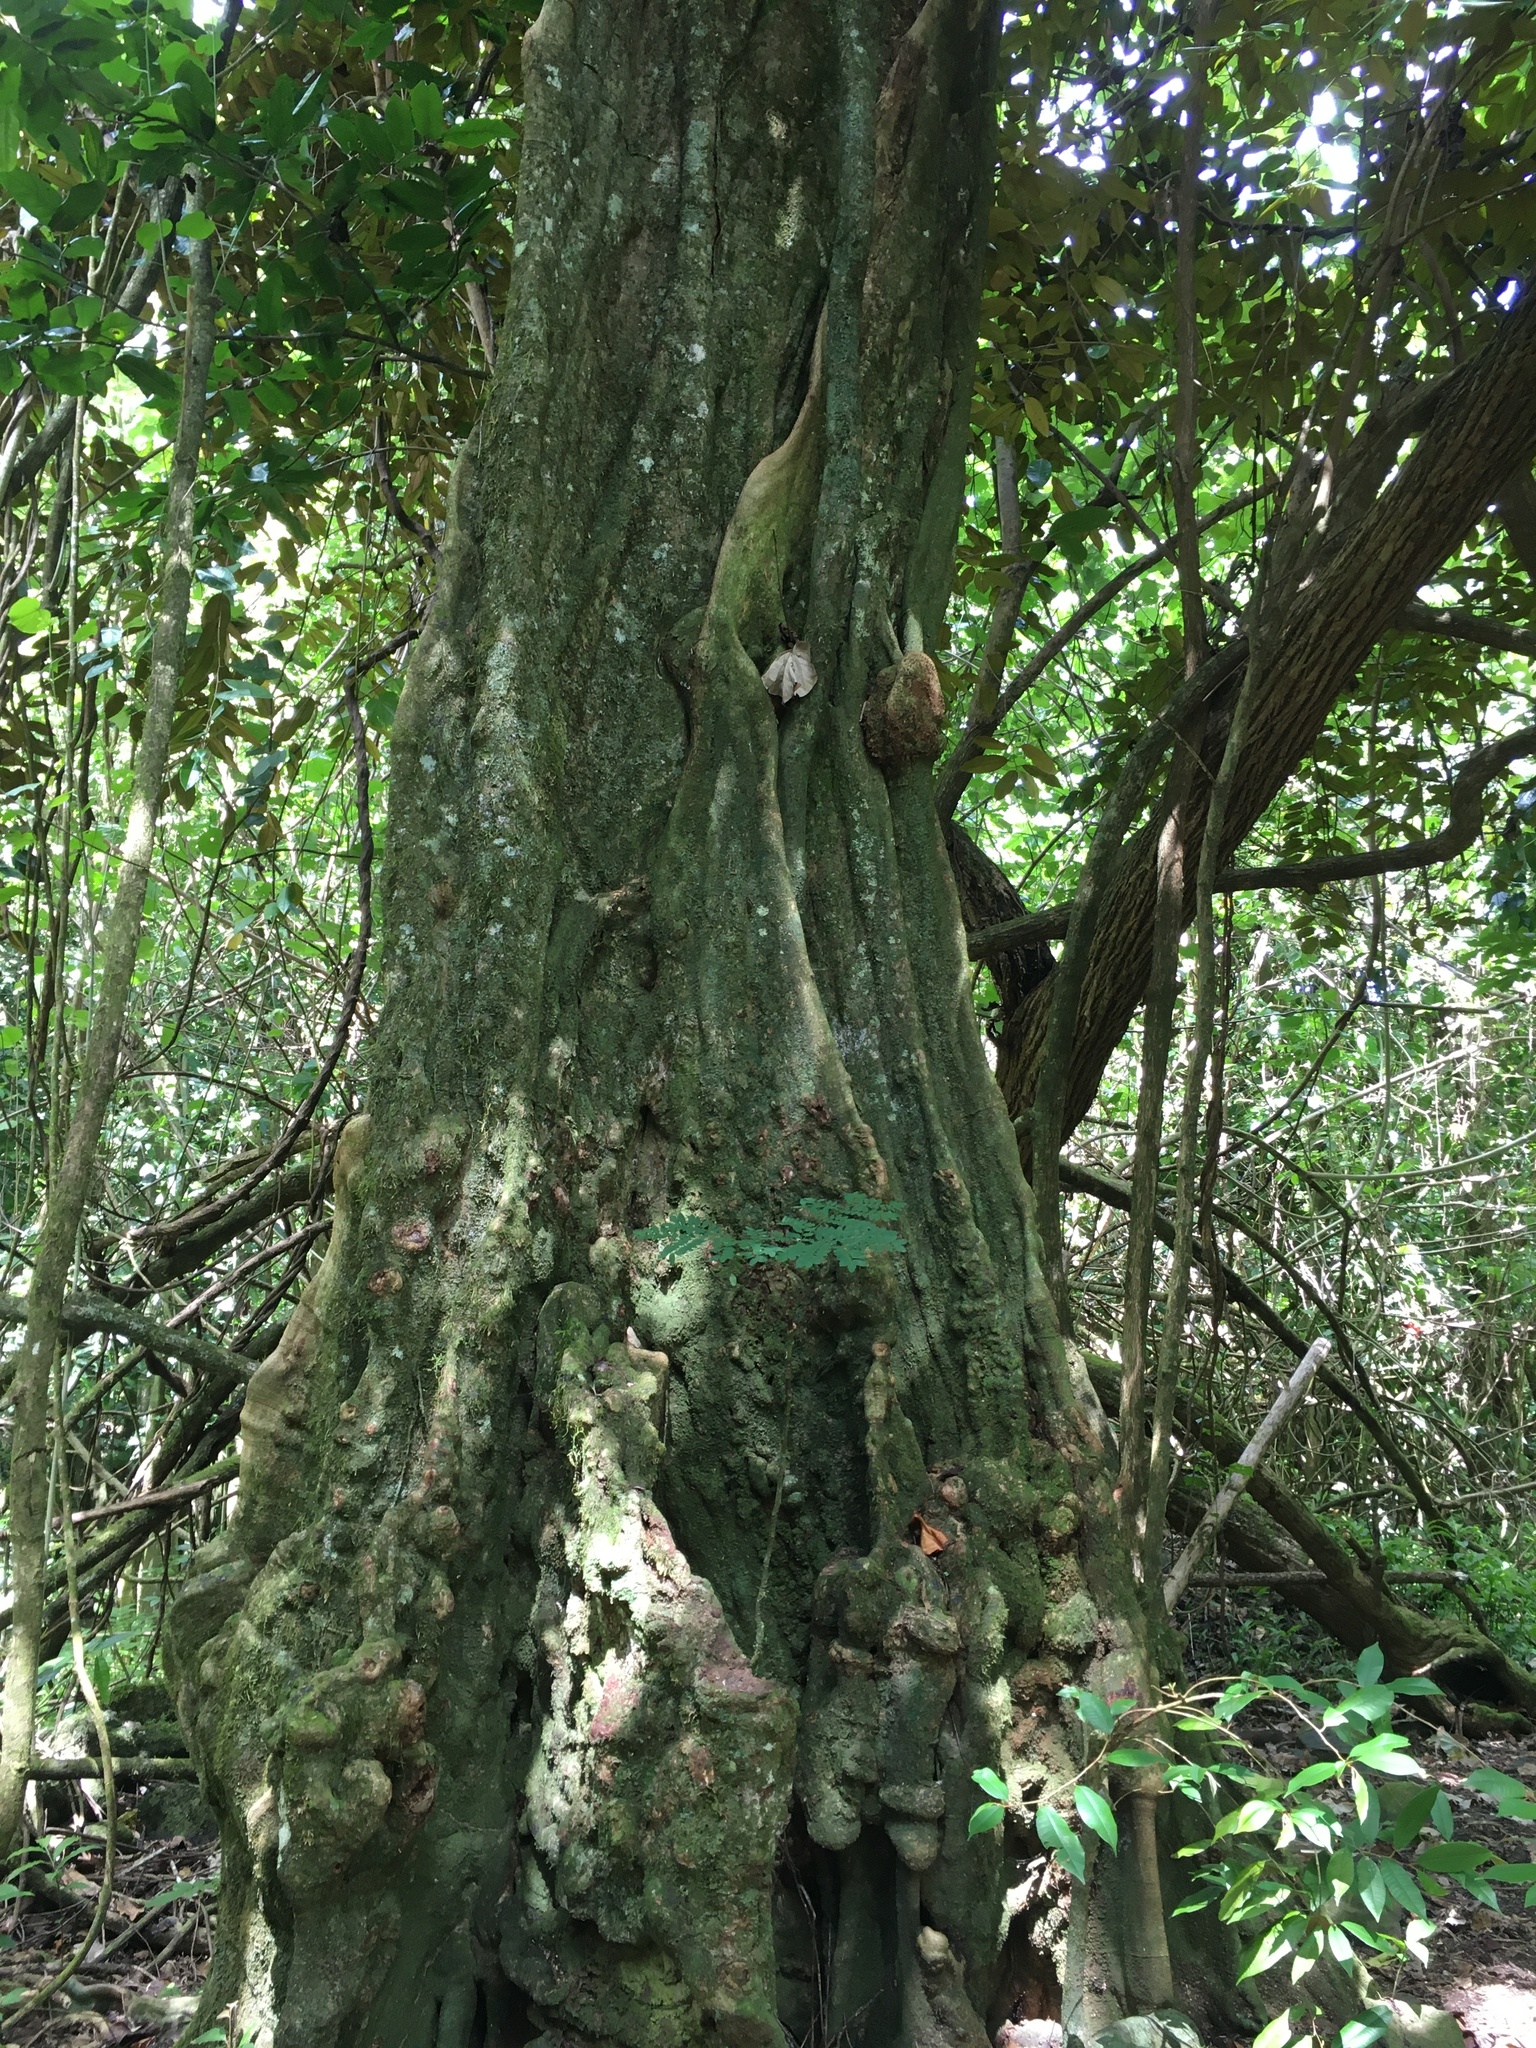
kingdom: Plantae
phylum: Tracheophyta
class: Magnoliopsida
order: Fabales
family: Fabaceae
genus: Inocarpus
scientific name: Inocarpus fagifer
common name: Polynesian chestnut
